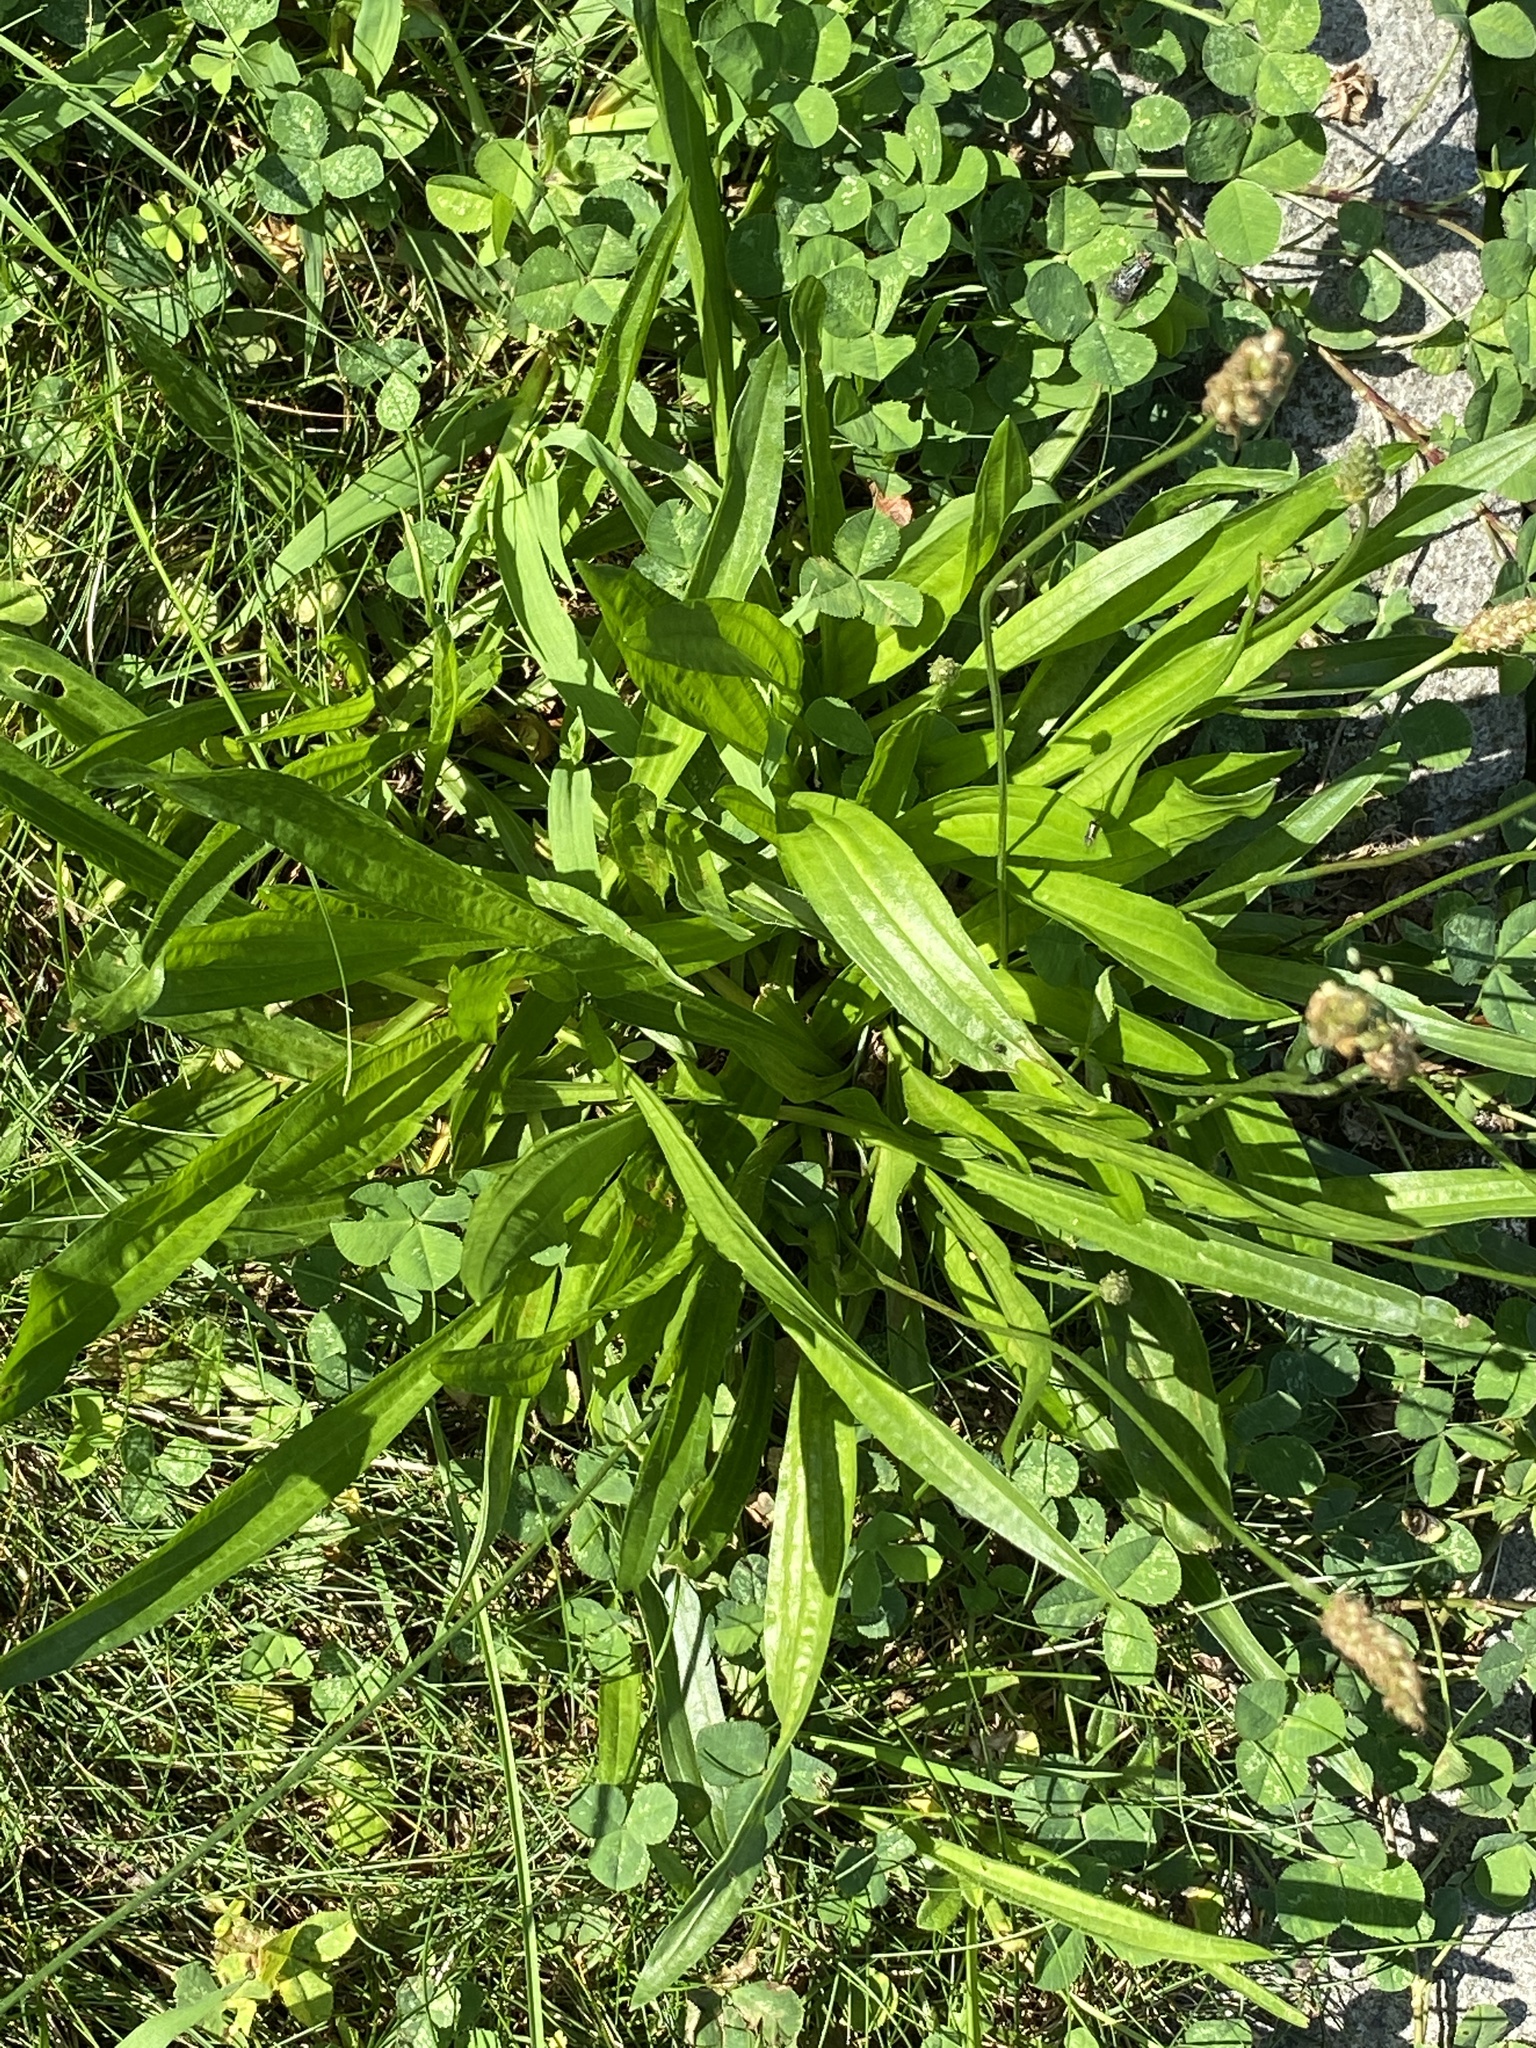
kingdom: Plantae
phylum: Tracheophyta
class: Magnoliopsida
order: Lamiales
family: Plantaginaceae
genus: Plantago
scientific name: Plantago lanceolata
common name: Ribwort plantain
